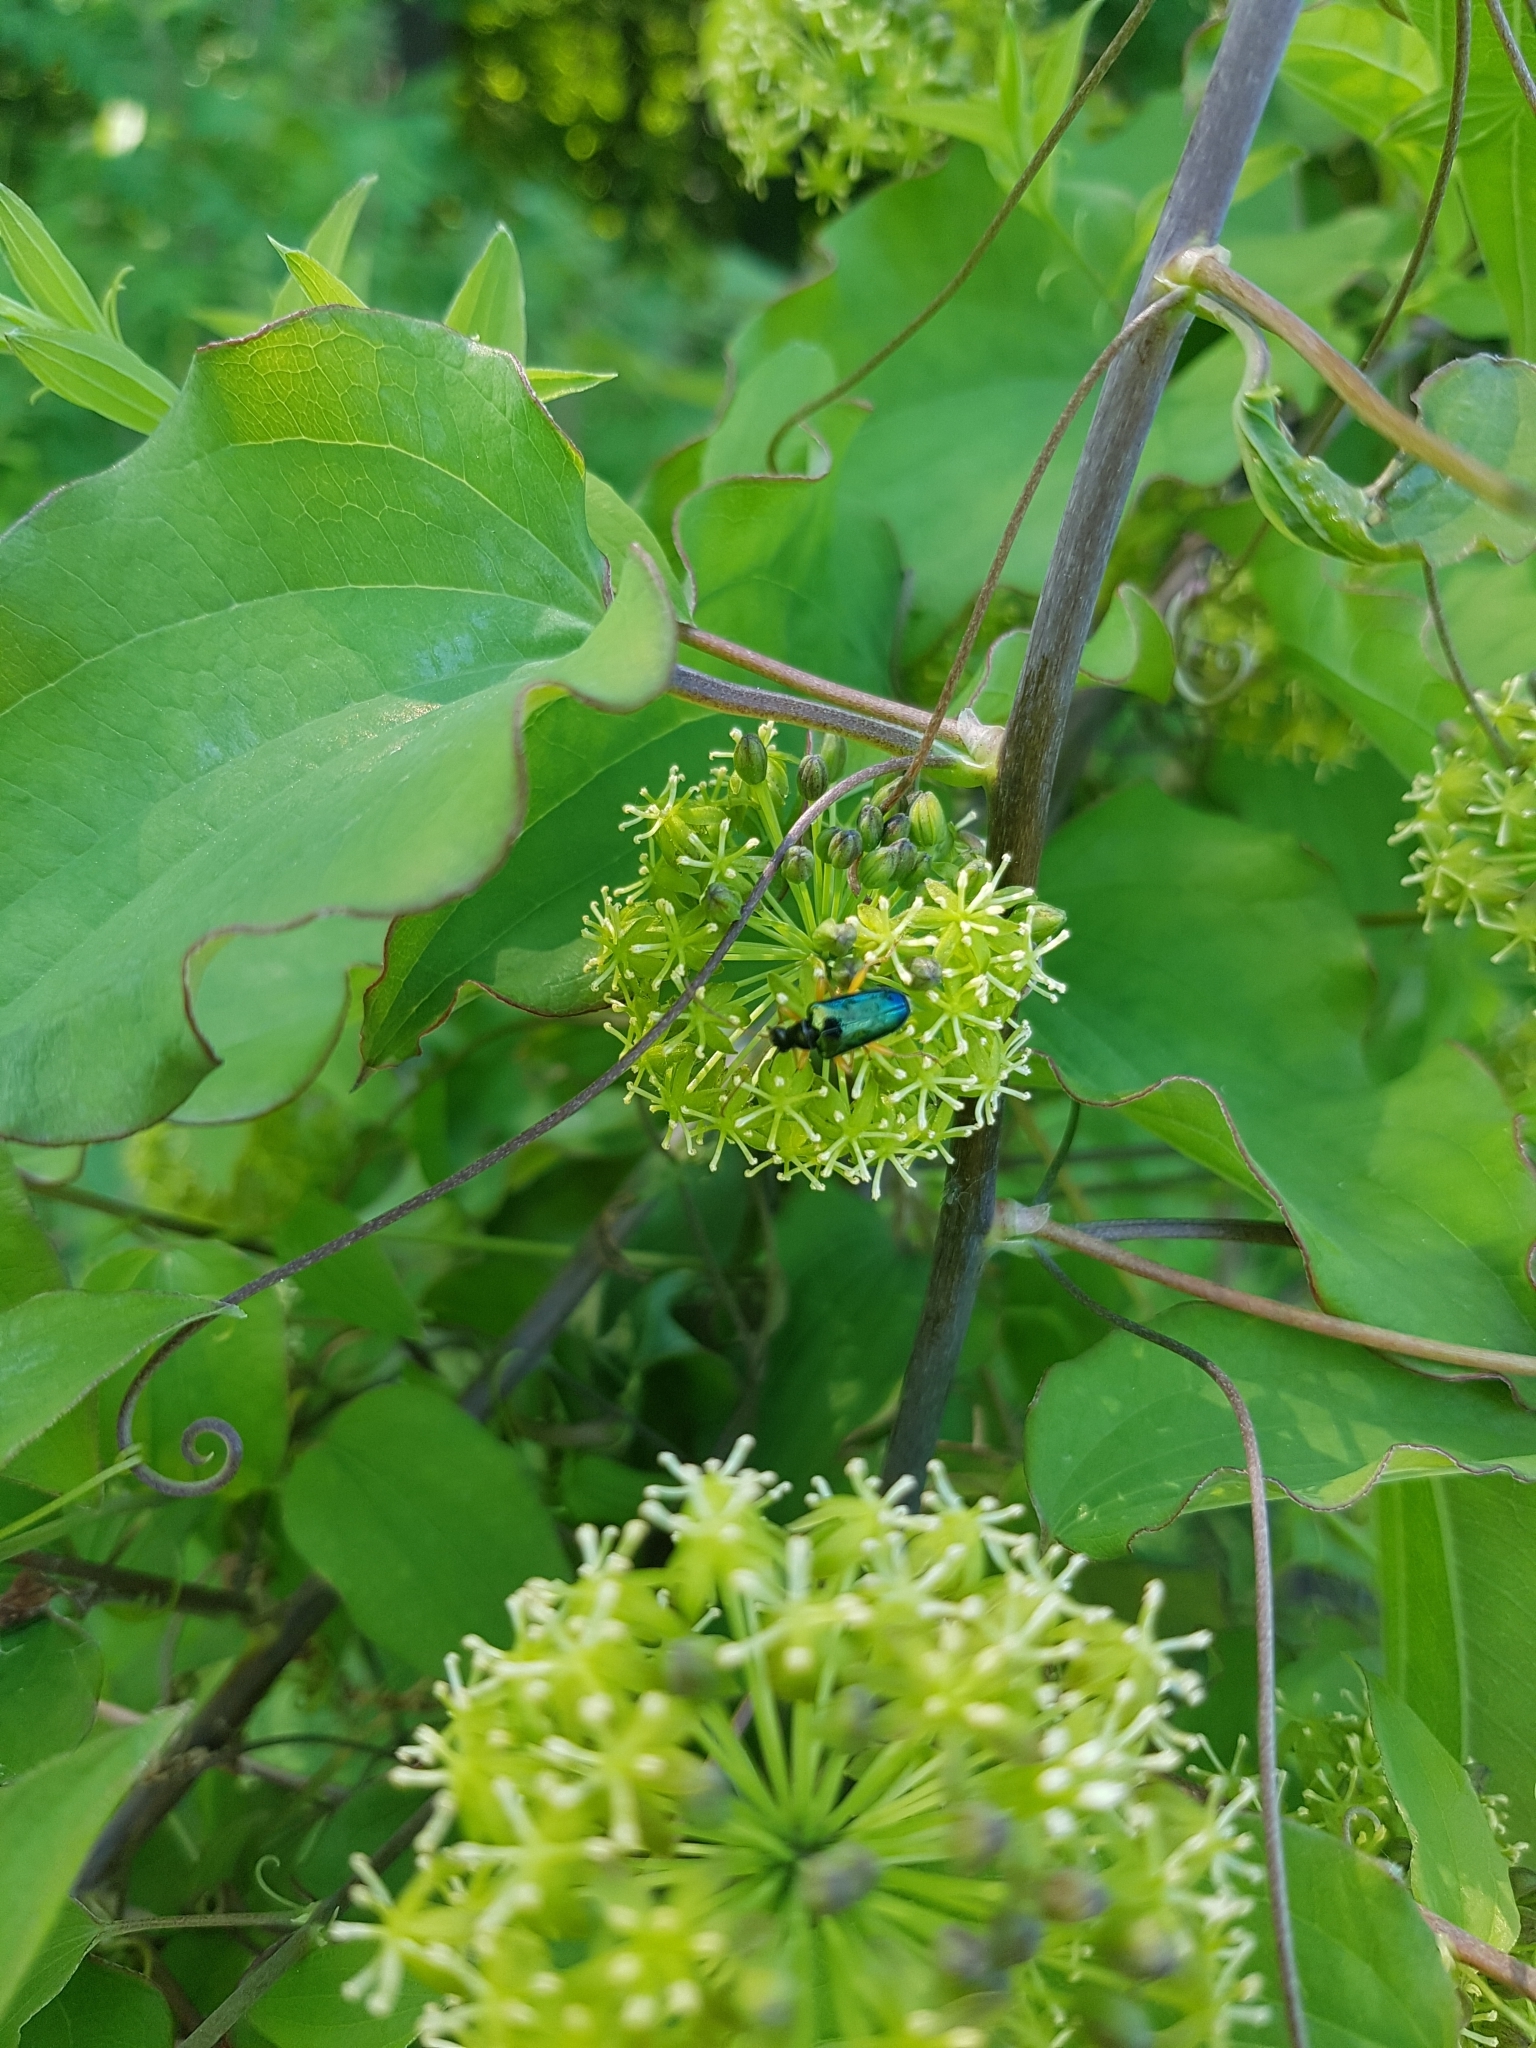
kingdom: Animalia
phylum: Arthropoda
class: Insecta
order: Coleoptera
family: Cerambycidae
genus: Gaurotes
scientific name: Gaurotes cyanipennis
